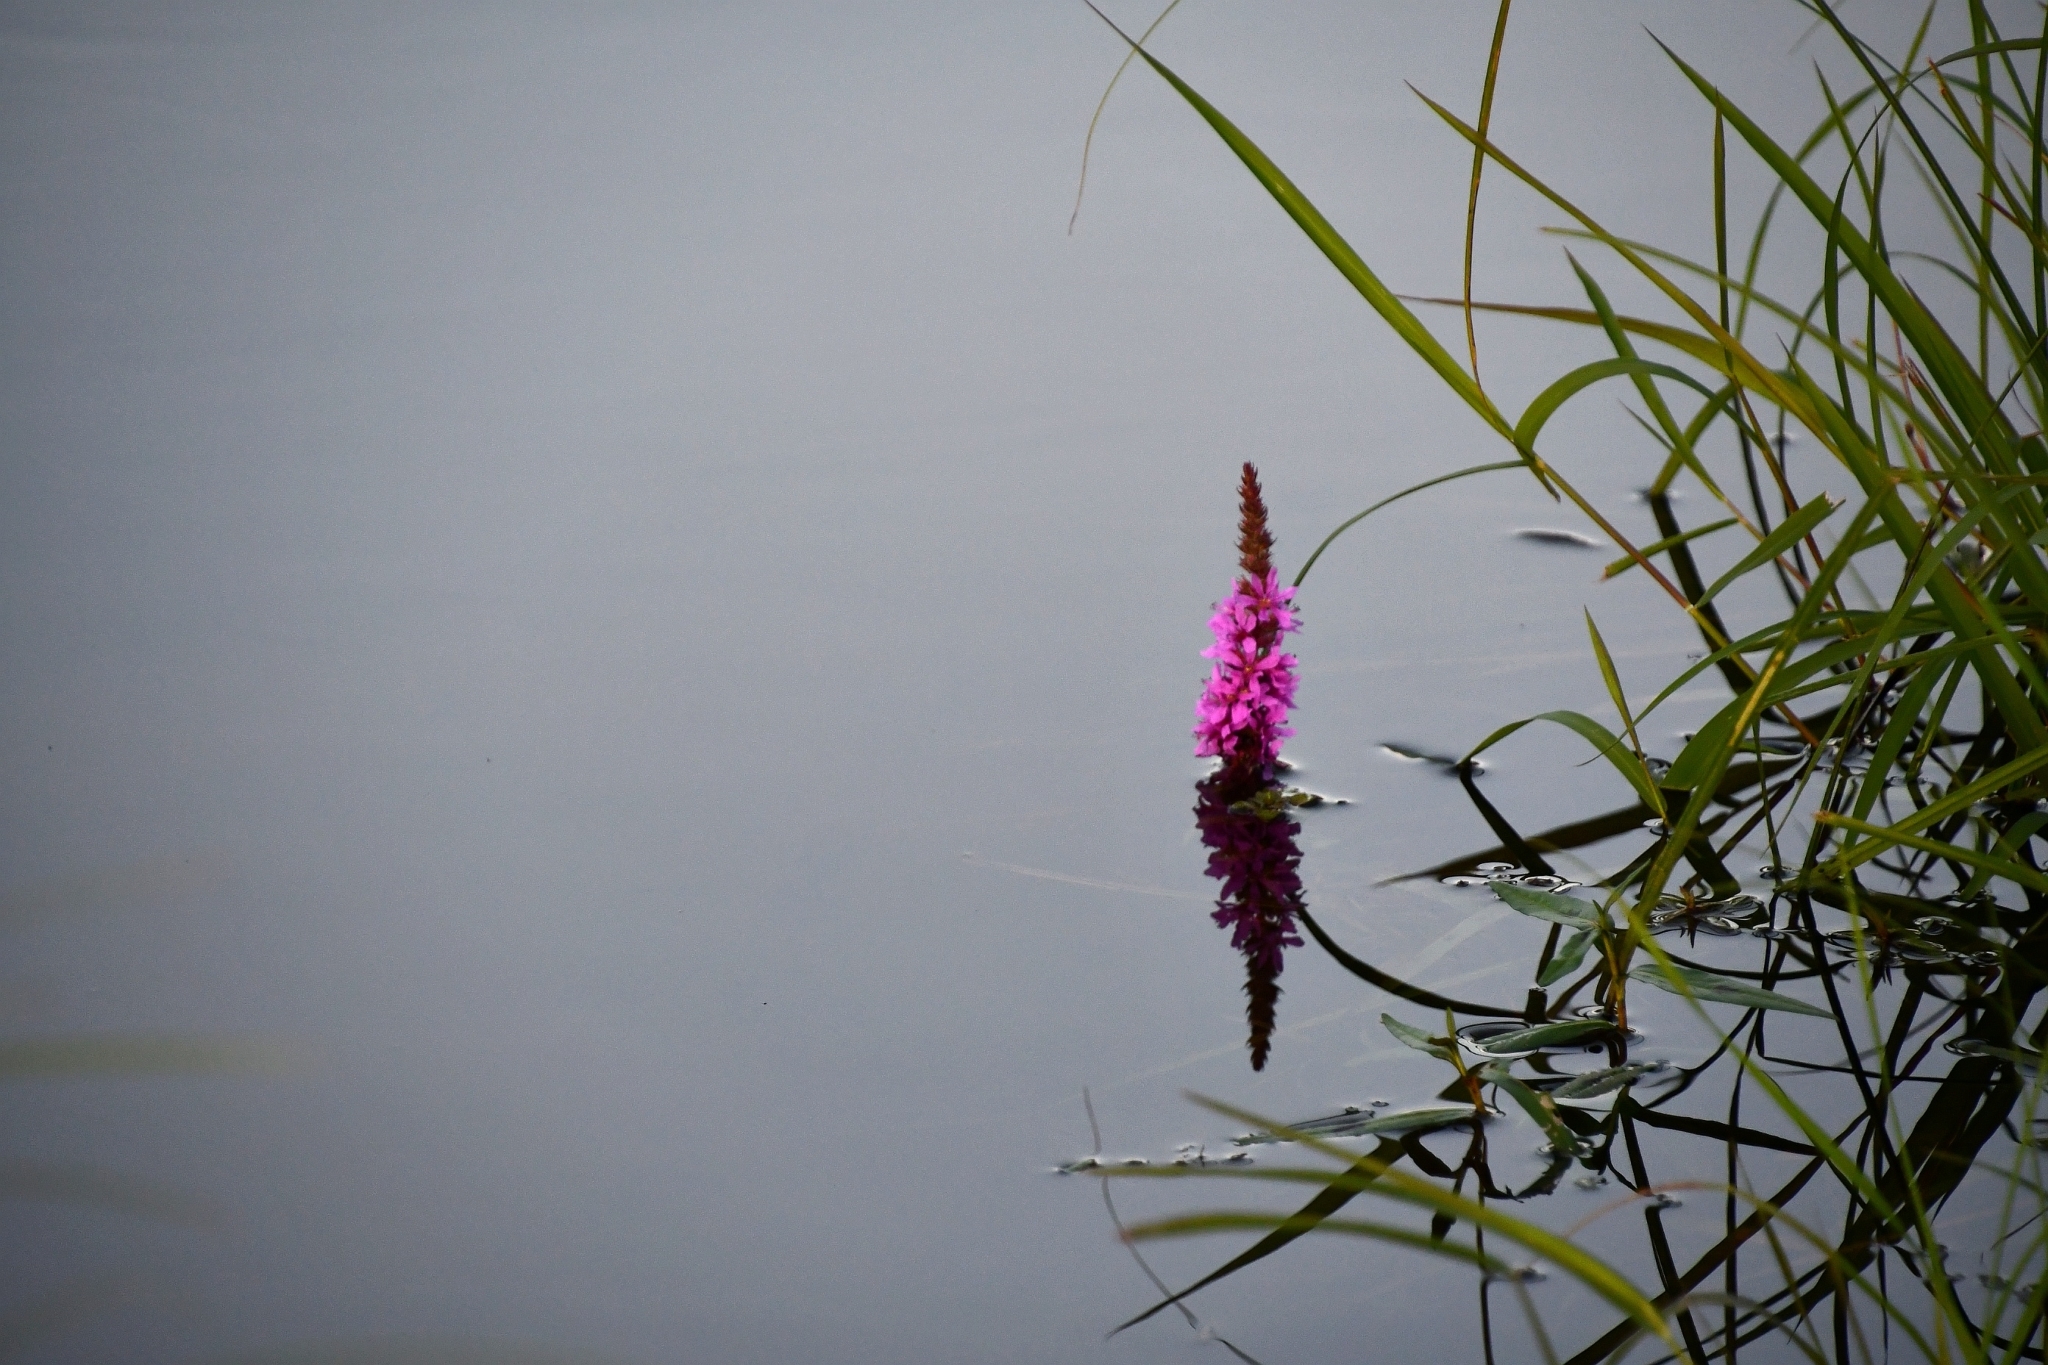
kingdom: Plantae
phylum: Tracheophyta
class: Magnoliopsida
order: Myrtales
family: Lythraceae
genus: Lythrum
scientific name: Lythrum salicaria
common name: Purple loosestrife
